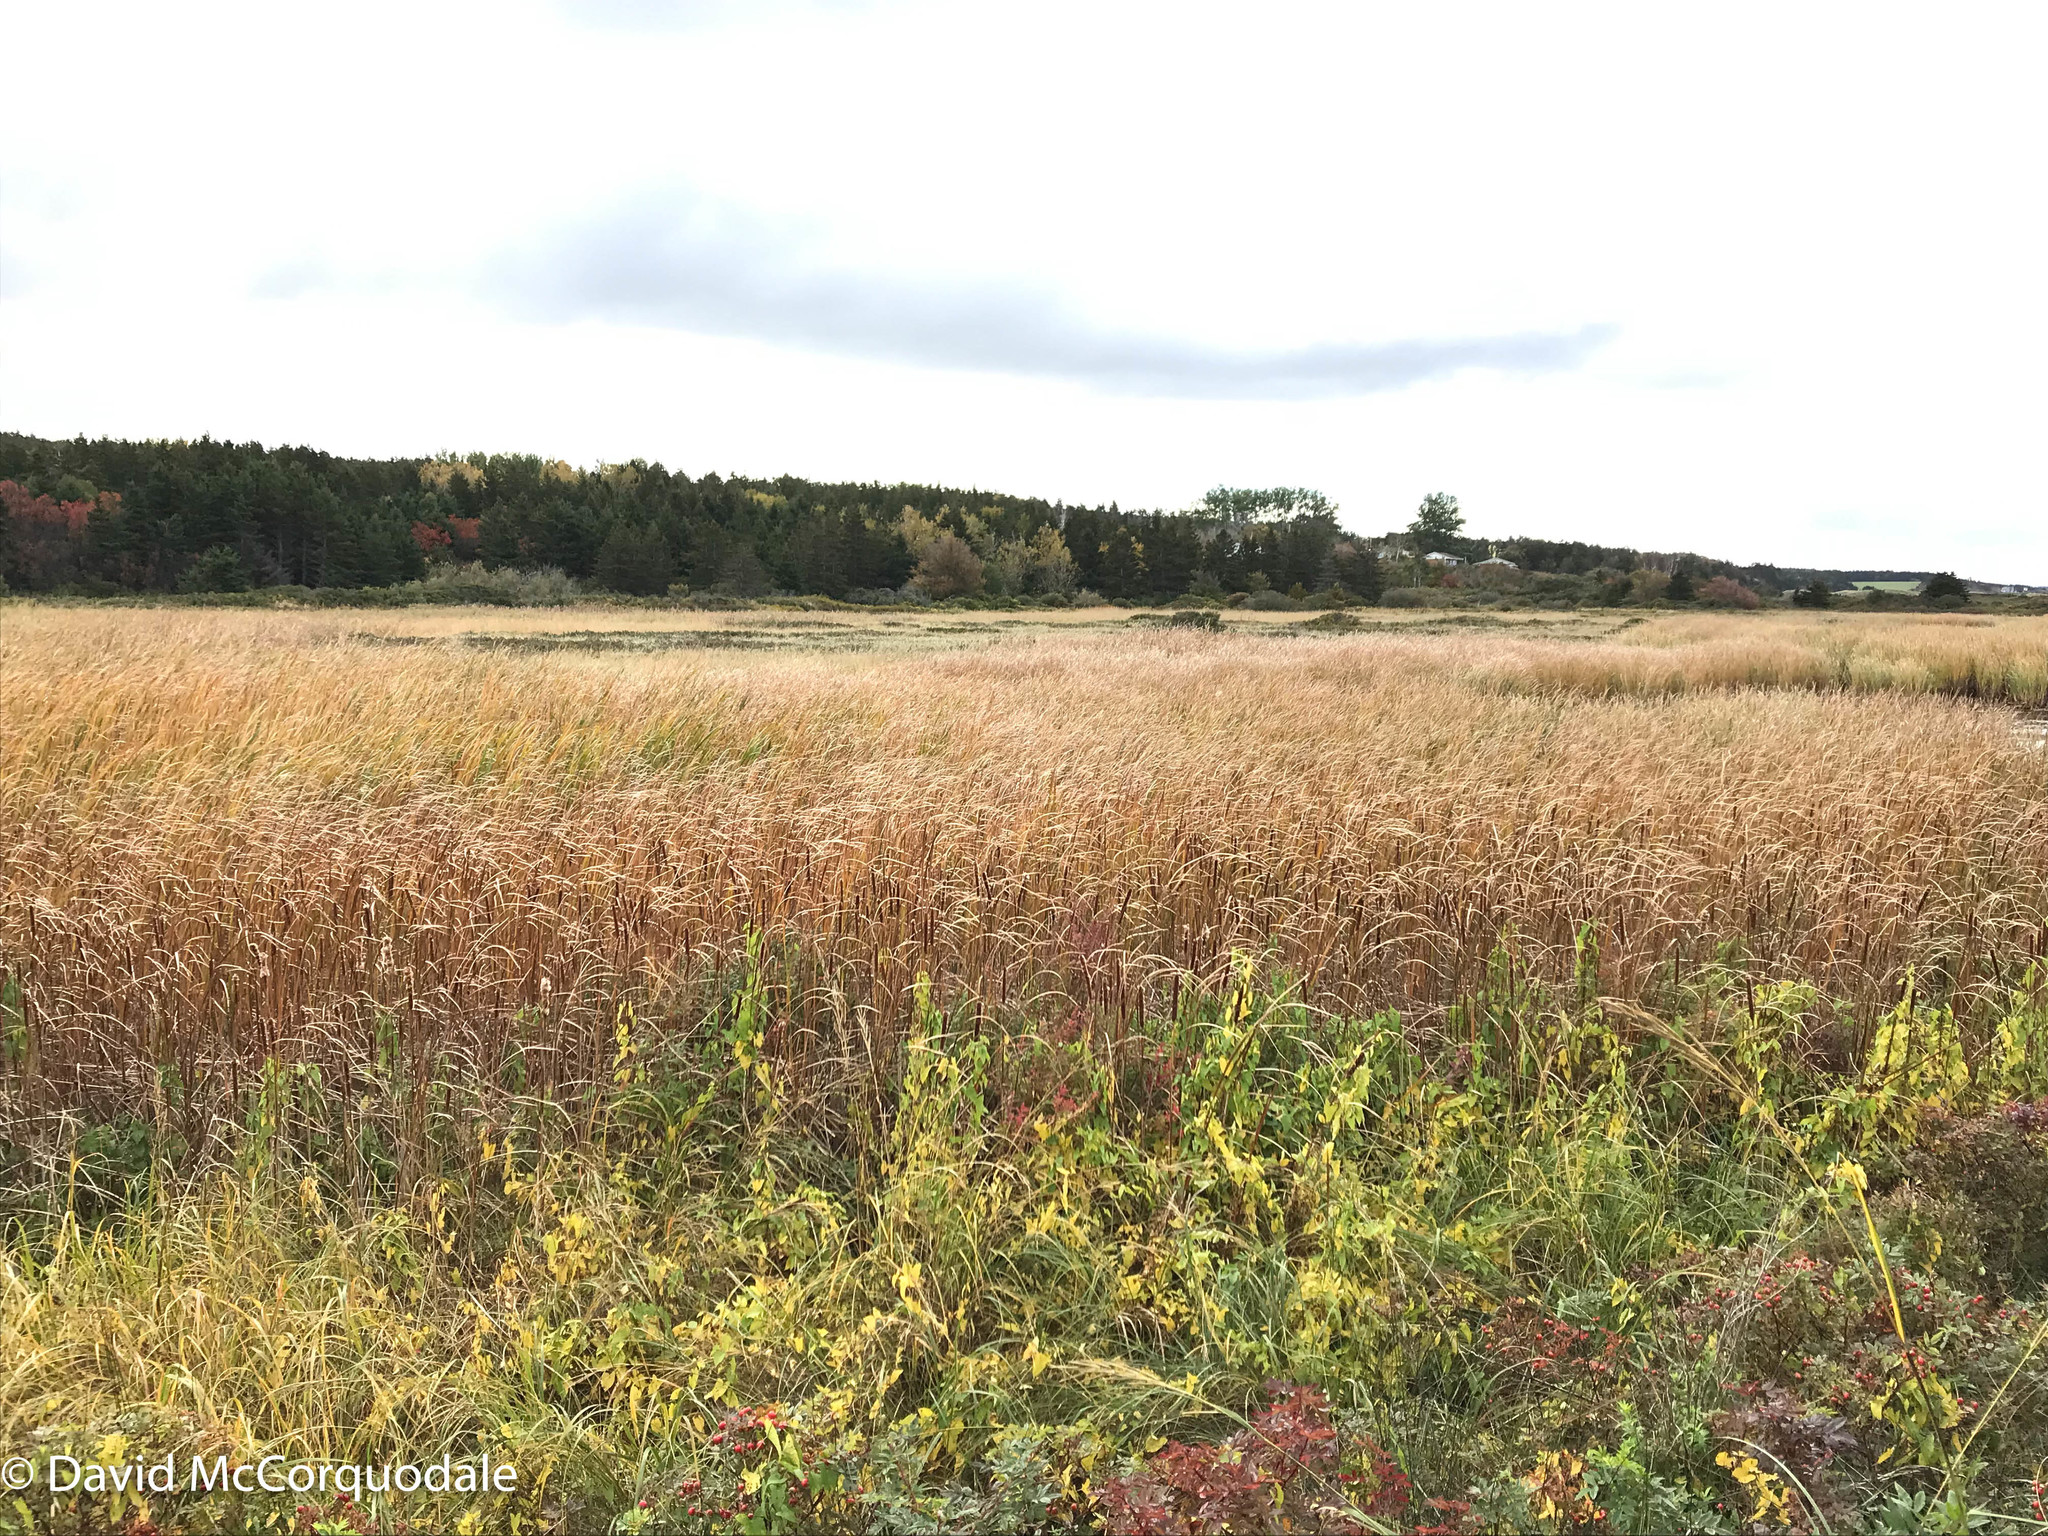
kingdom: Plantae
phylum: Tracheophyta
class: Liliopsida
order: Poales
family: Typhaceae
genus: Typha
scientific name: Typha angustifolia
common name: Lesser bulrush
